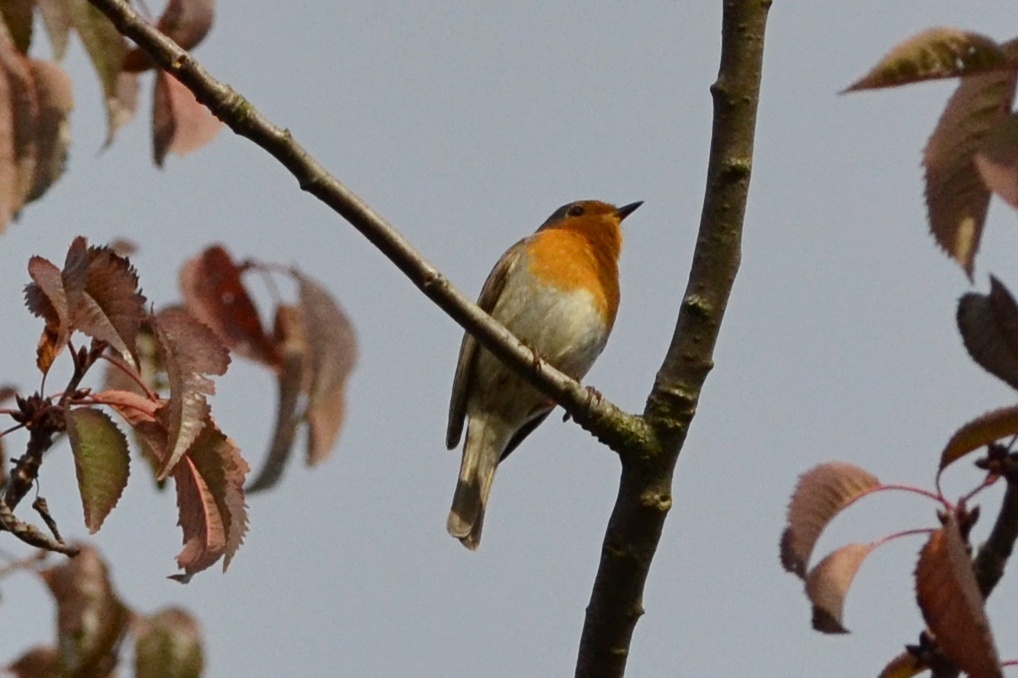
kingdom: Animalia
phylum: Chordata
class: Aves
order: Passeriformes
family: Muscicapidae
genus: Erithacus
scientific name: Erithacus rubecula
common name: European robin
